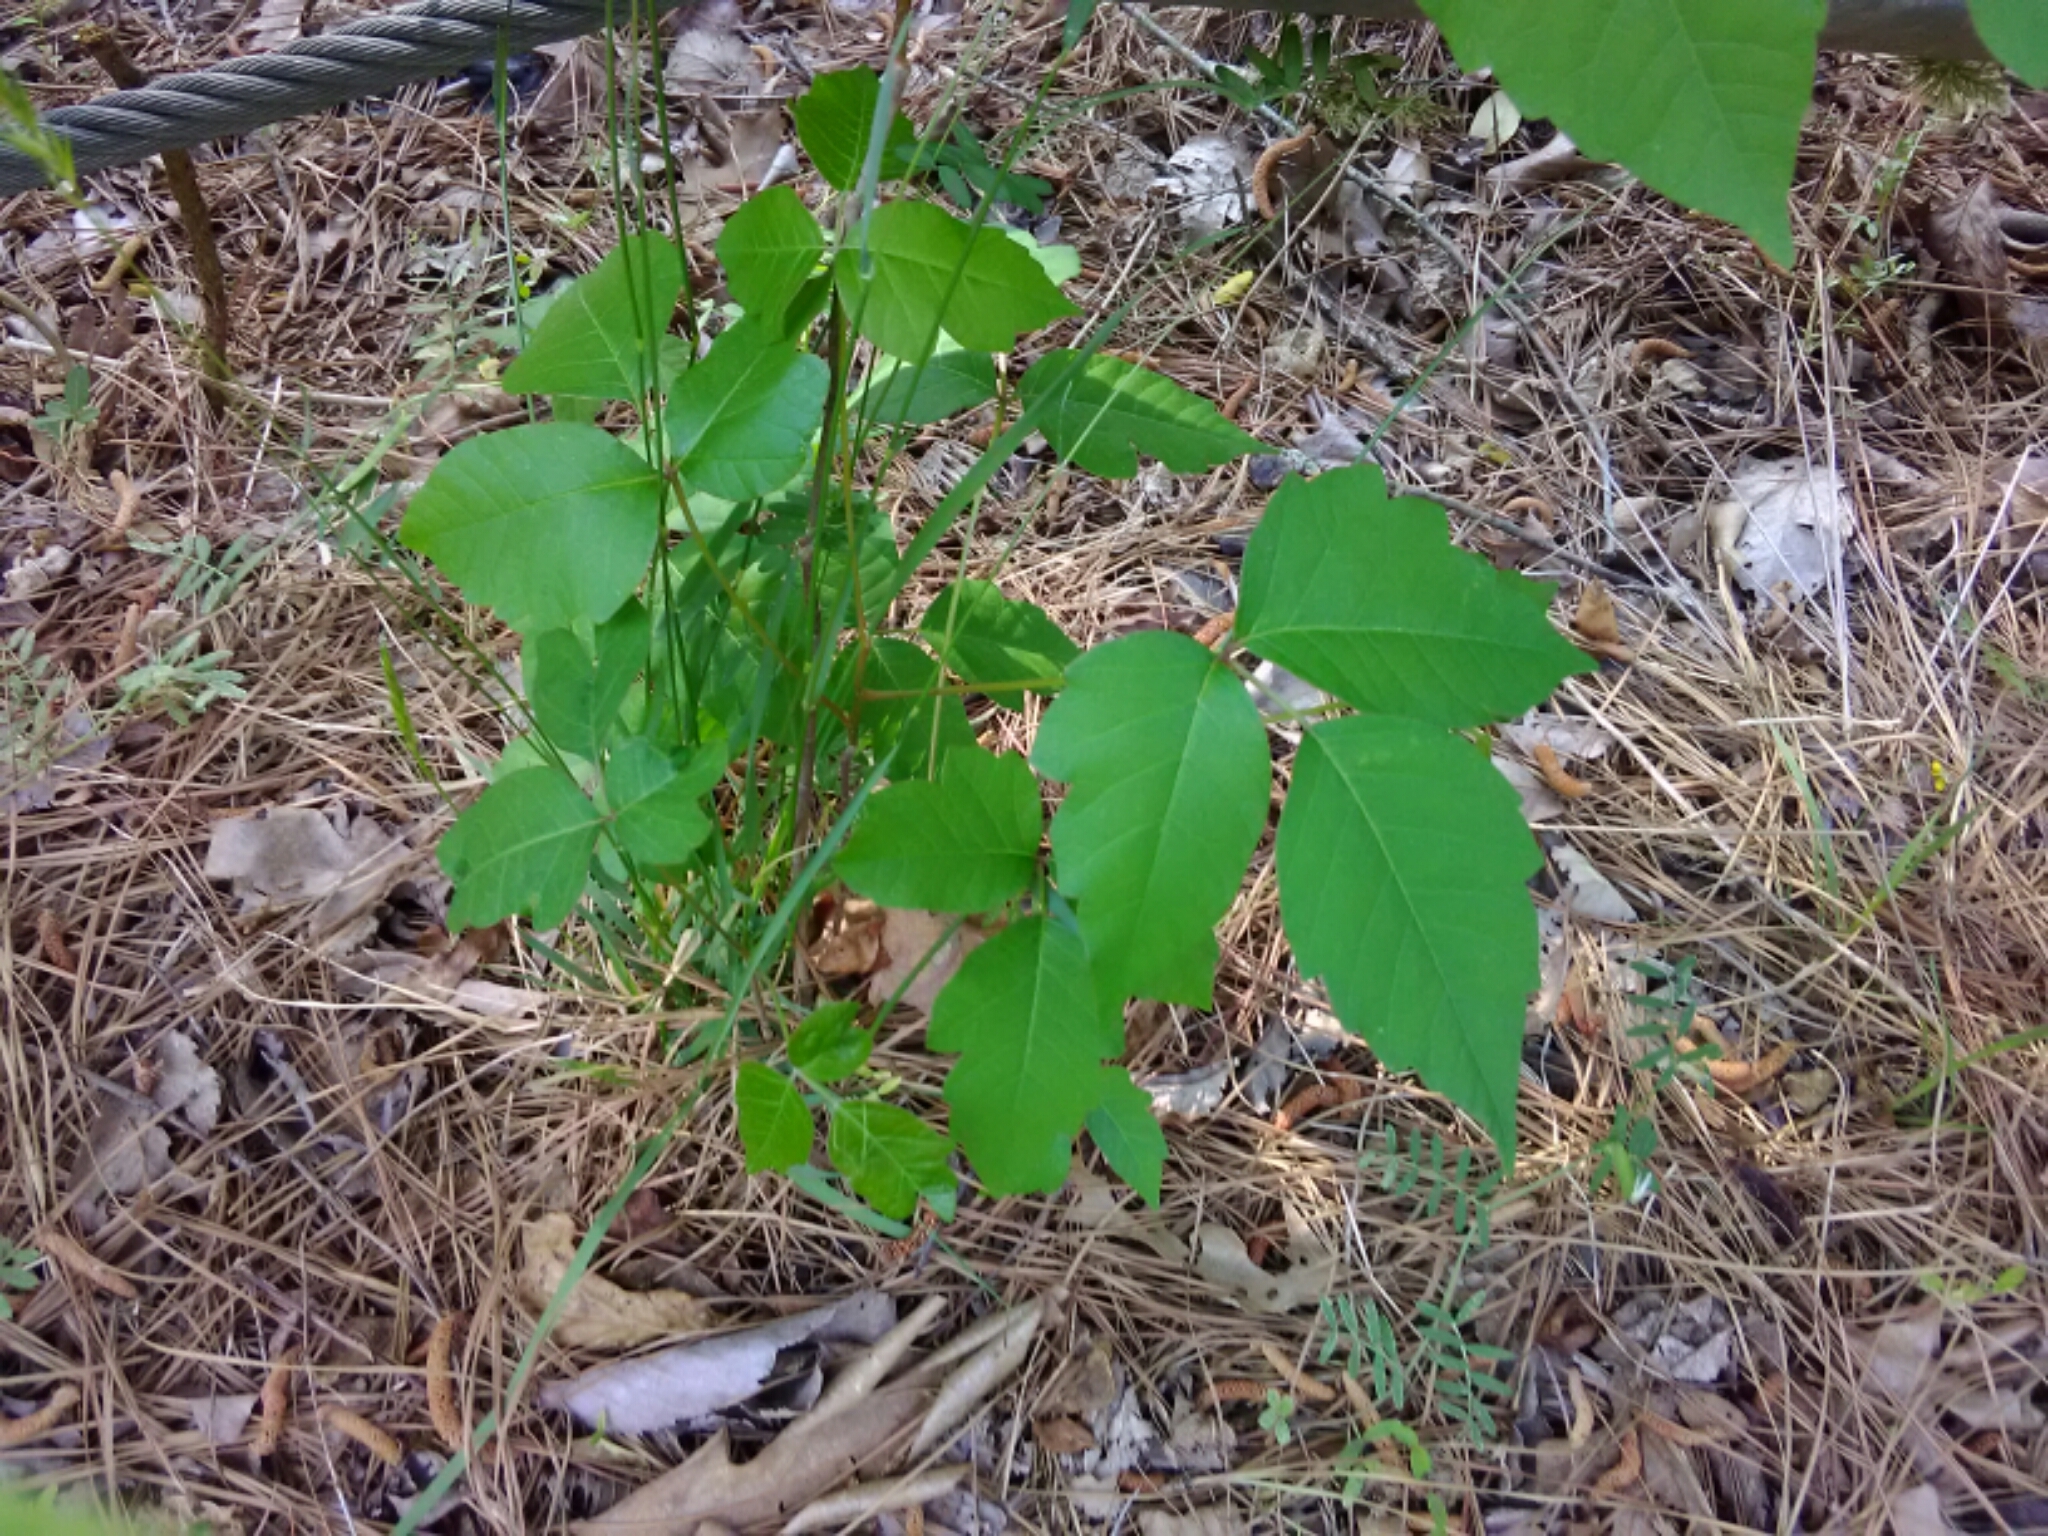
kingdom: Plantae
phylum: Tracheophyta
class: Magnoliopsida
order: Sapindales
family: Anacardiaceae
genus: Toxicodendron
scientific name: Toxicodendron radicans
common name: Poison ivy
